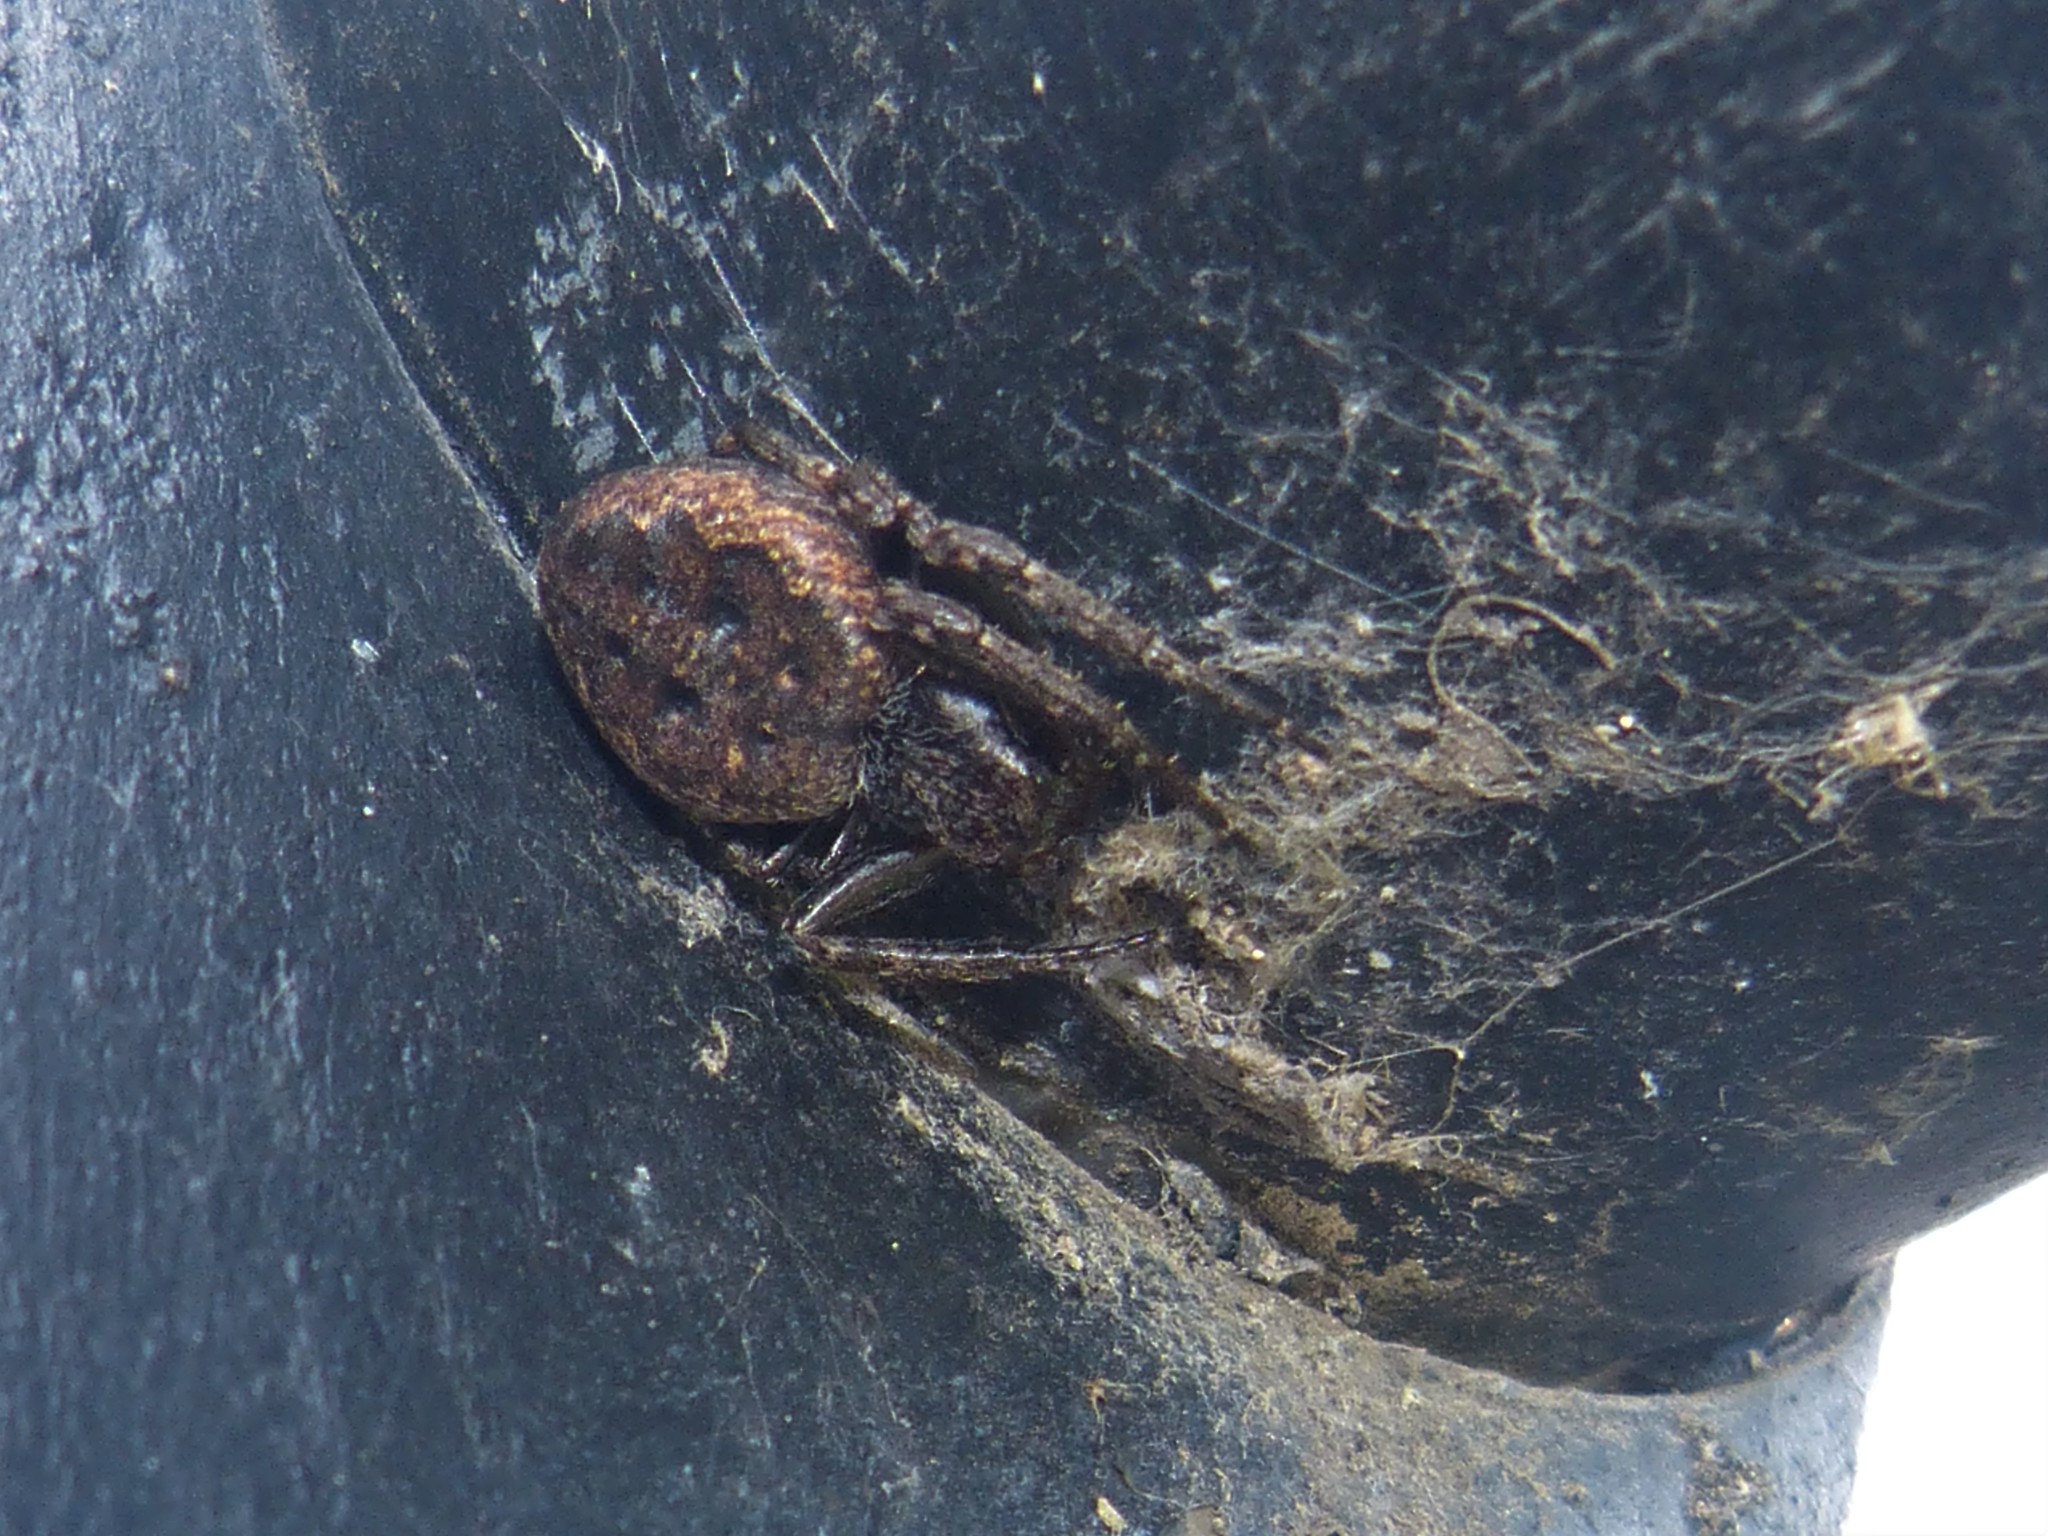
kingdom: Animalia
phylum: Arthropoda
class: Arachnida
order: Araneae
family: Araneidae
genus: Nuctenea
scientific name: Nuctenea umbratica
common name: Toad spider
